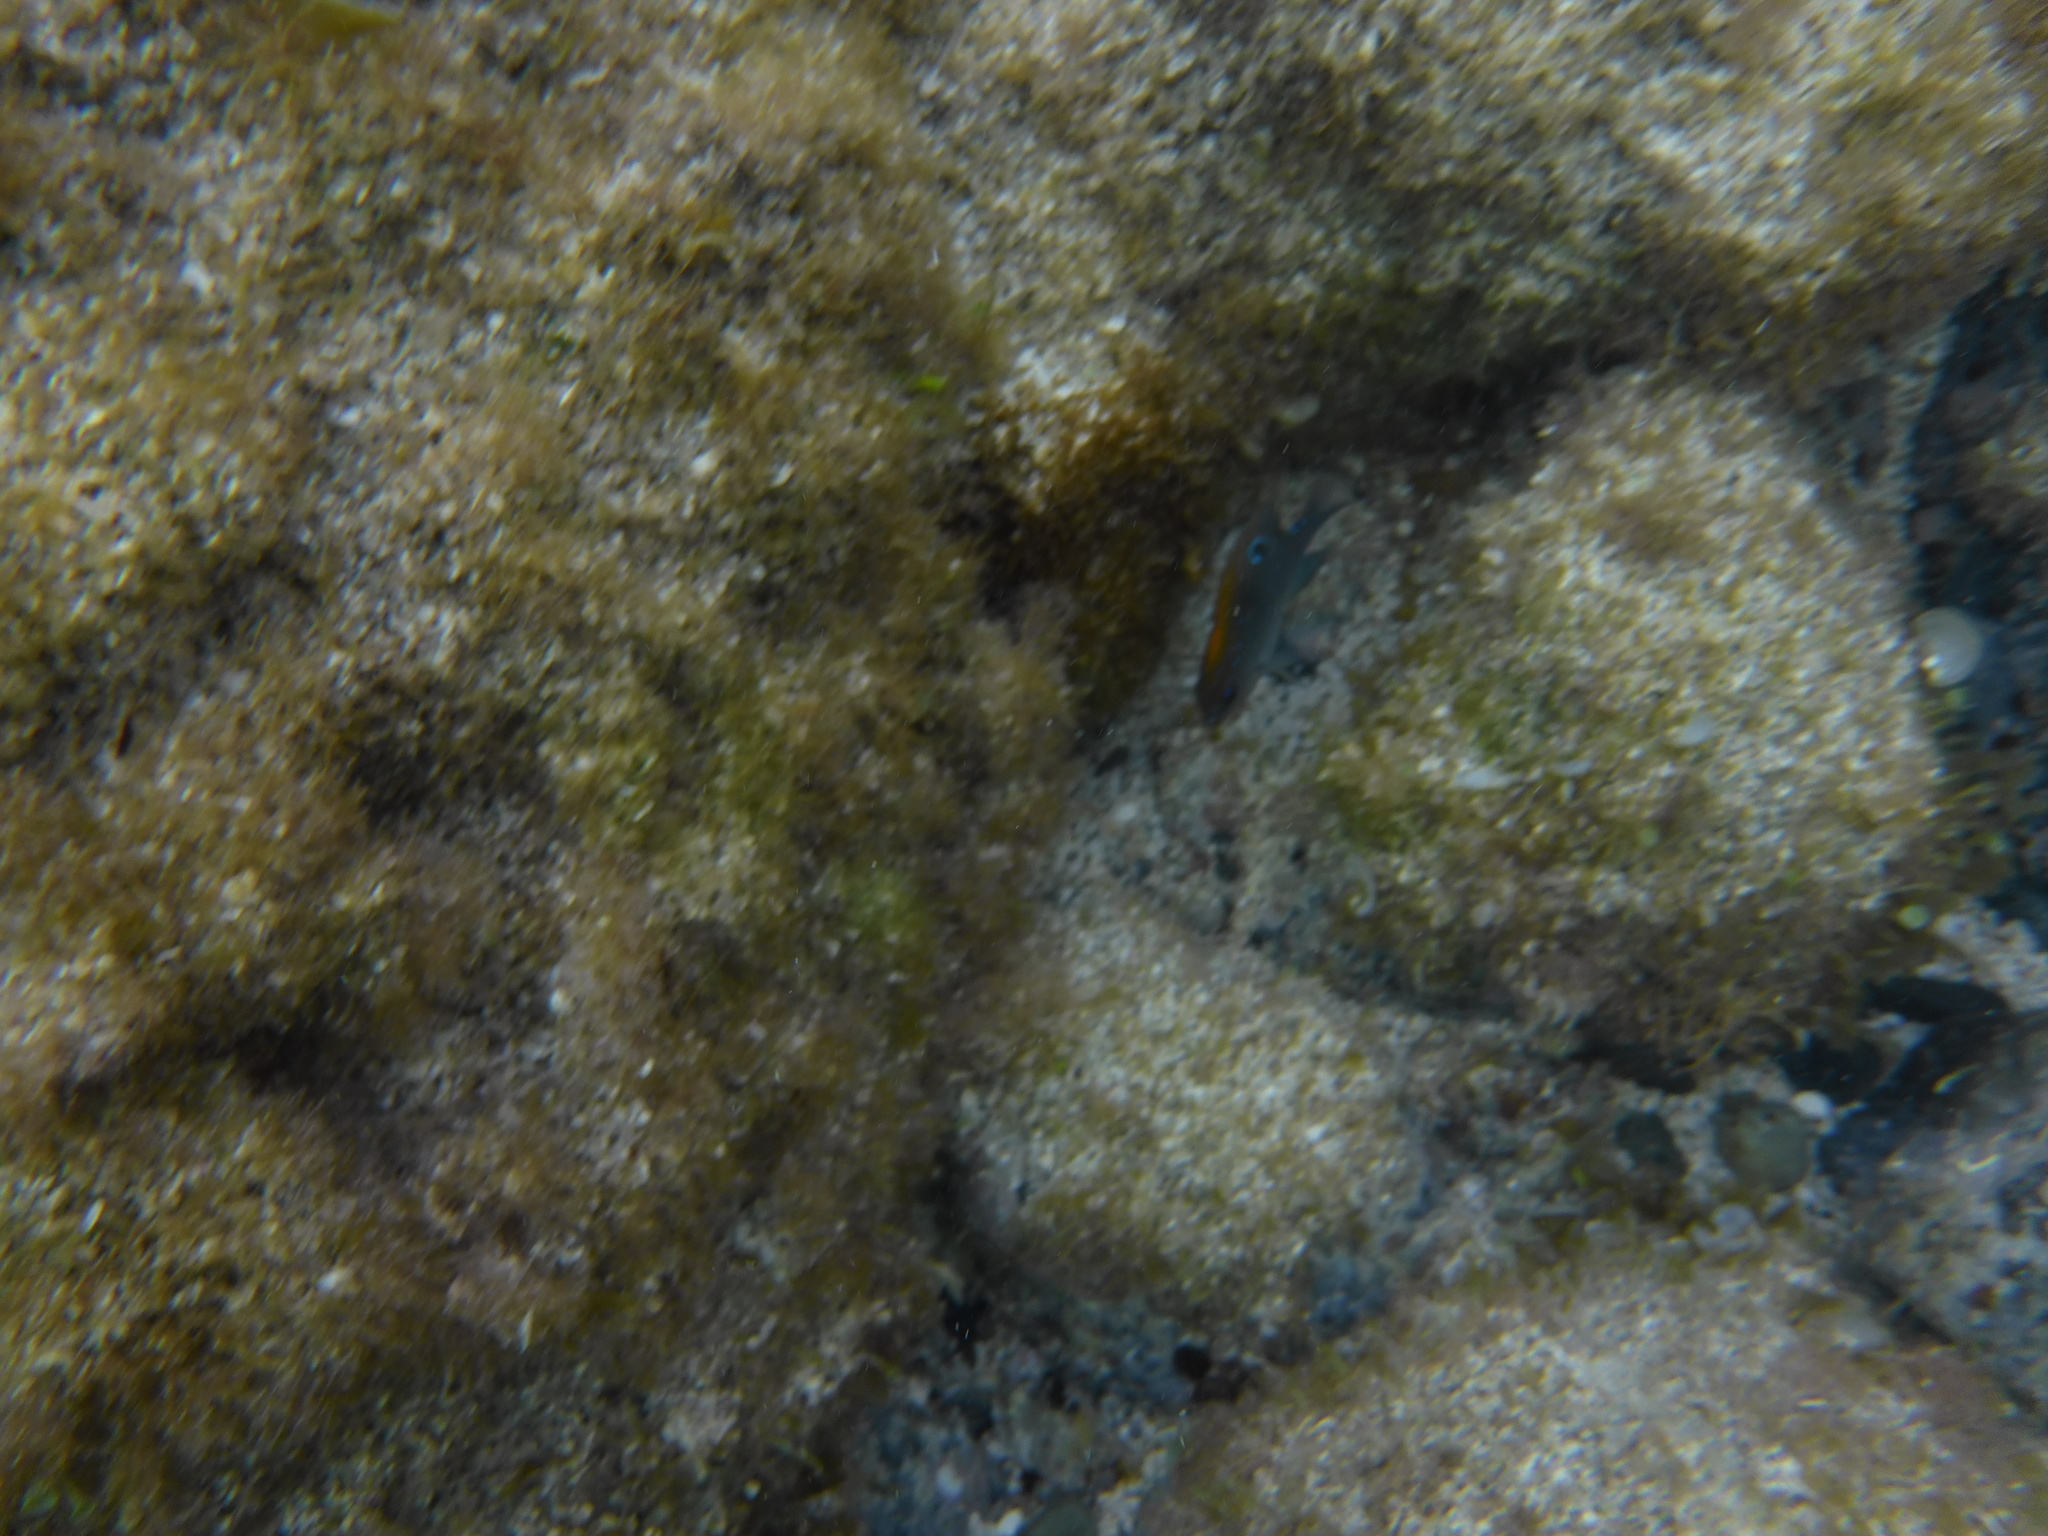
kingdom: Animalia
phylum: Chordata
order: Perciformes
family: Pomacentridae
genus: Stegastes
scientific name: Stegastes adustus
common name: Dusky damselfish
